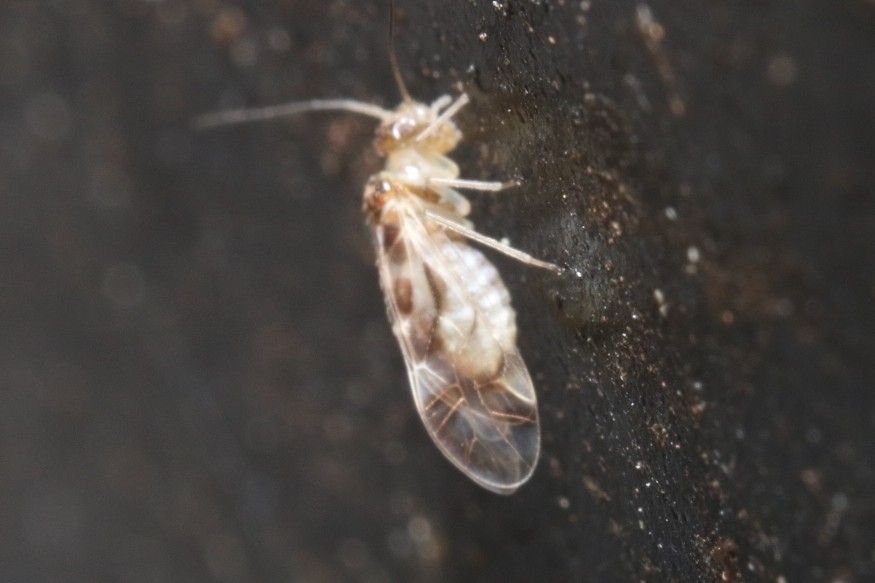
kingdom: Animalia
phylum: Arthropoda
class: Insecta
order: Psocodea
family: Stenopsocidae
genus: Graphopsocus
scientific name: Graphopsocus cruciatus
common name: Lizard bark louse
